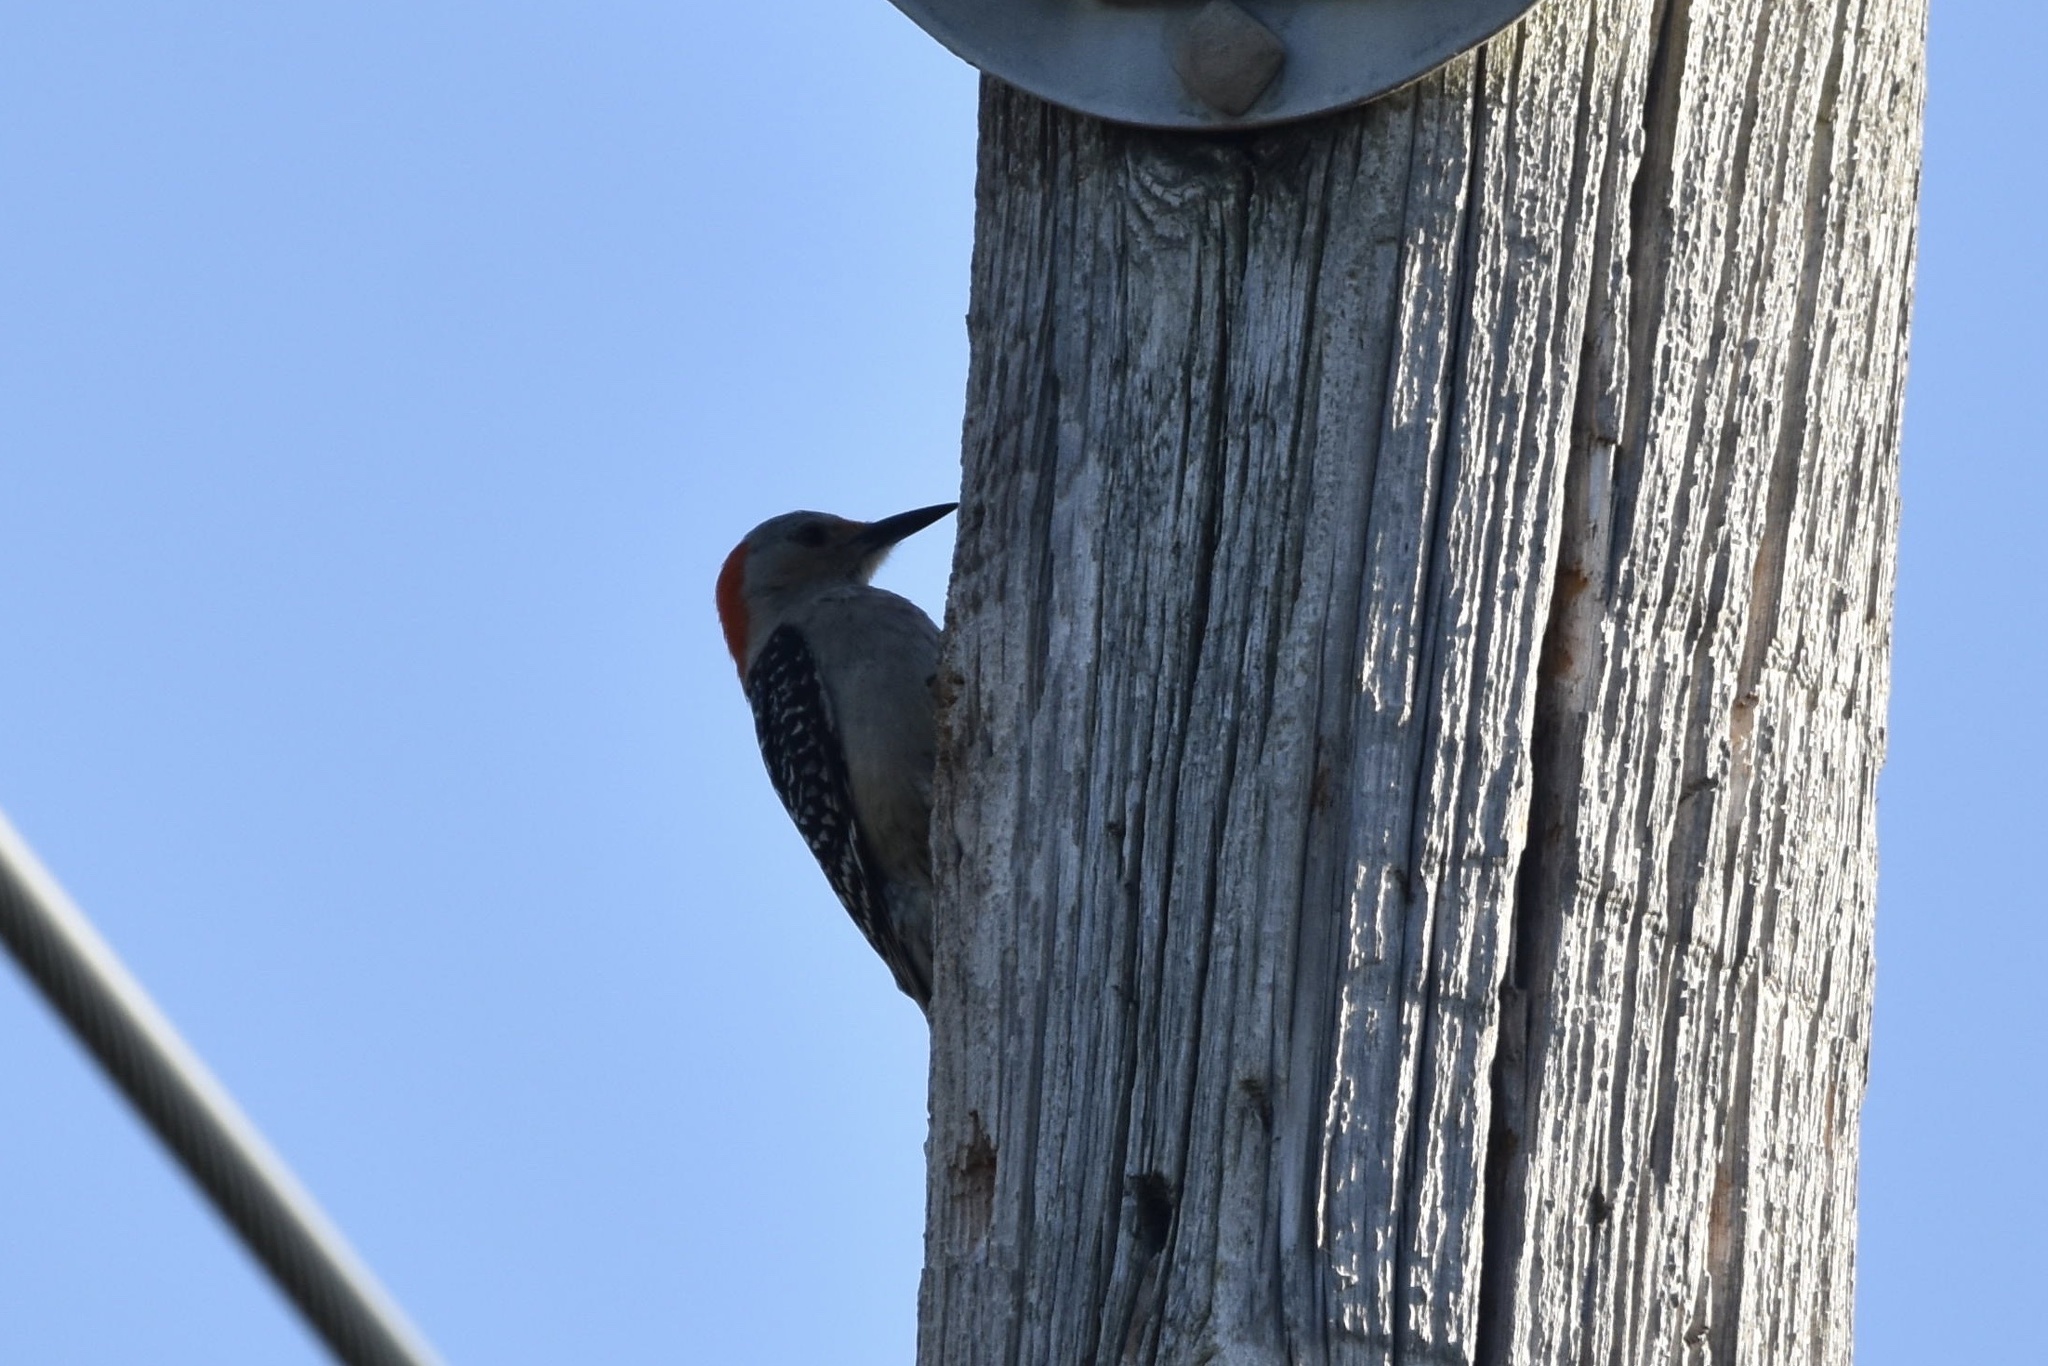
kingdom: Animalia
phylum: Chordata
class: Aves
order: Piciformes
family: Picidae
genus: Melanerpes
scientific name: Melanerpes carolinus
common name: Red-bellied woodpecker
